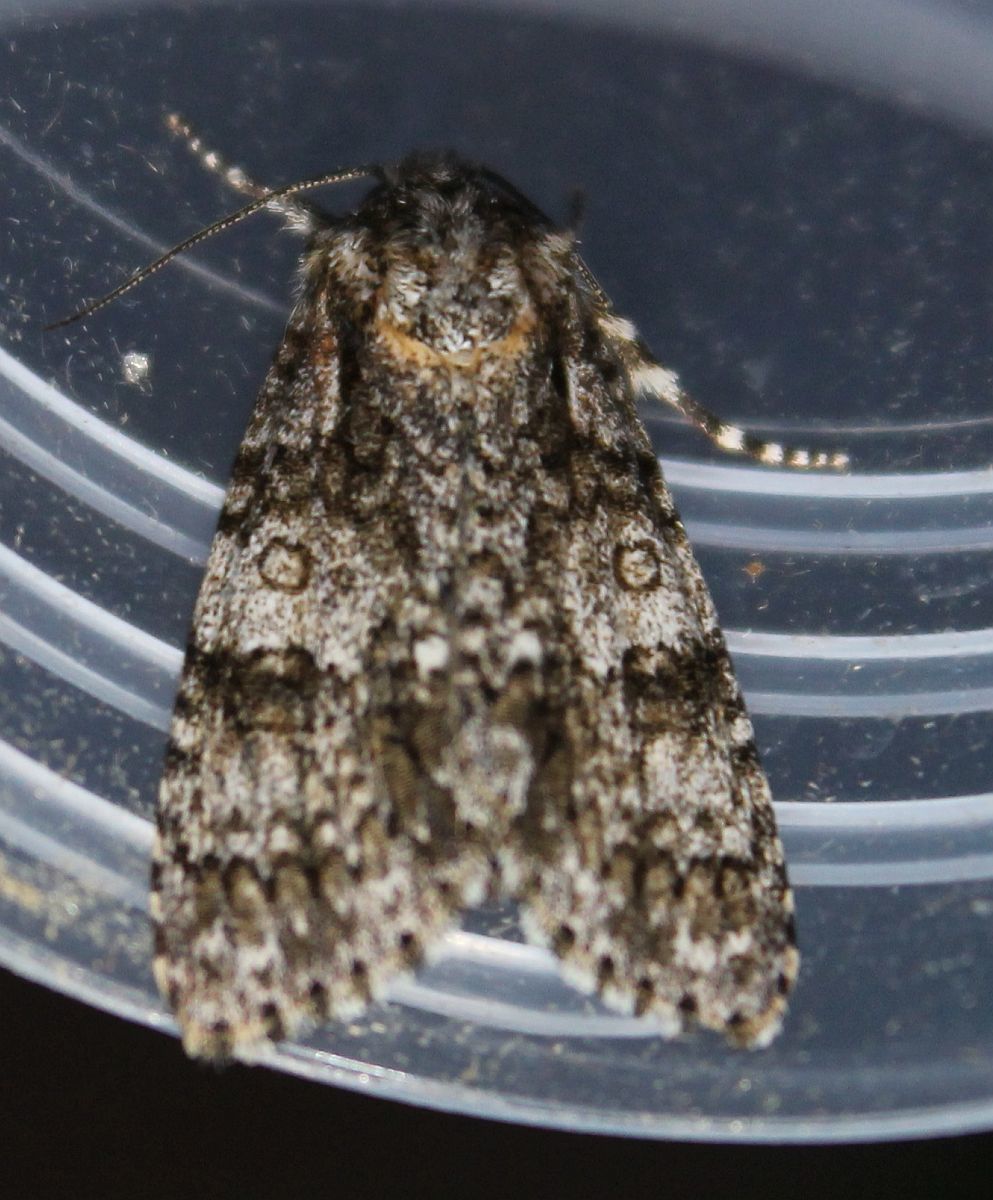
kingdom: Animalia
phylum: Arthropoda
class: Insecta
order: Lepidoptera
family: Noctuidae
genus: Acronicta
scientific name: Acronicta rumicis
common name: Knot grass
